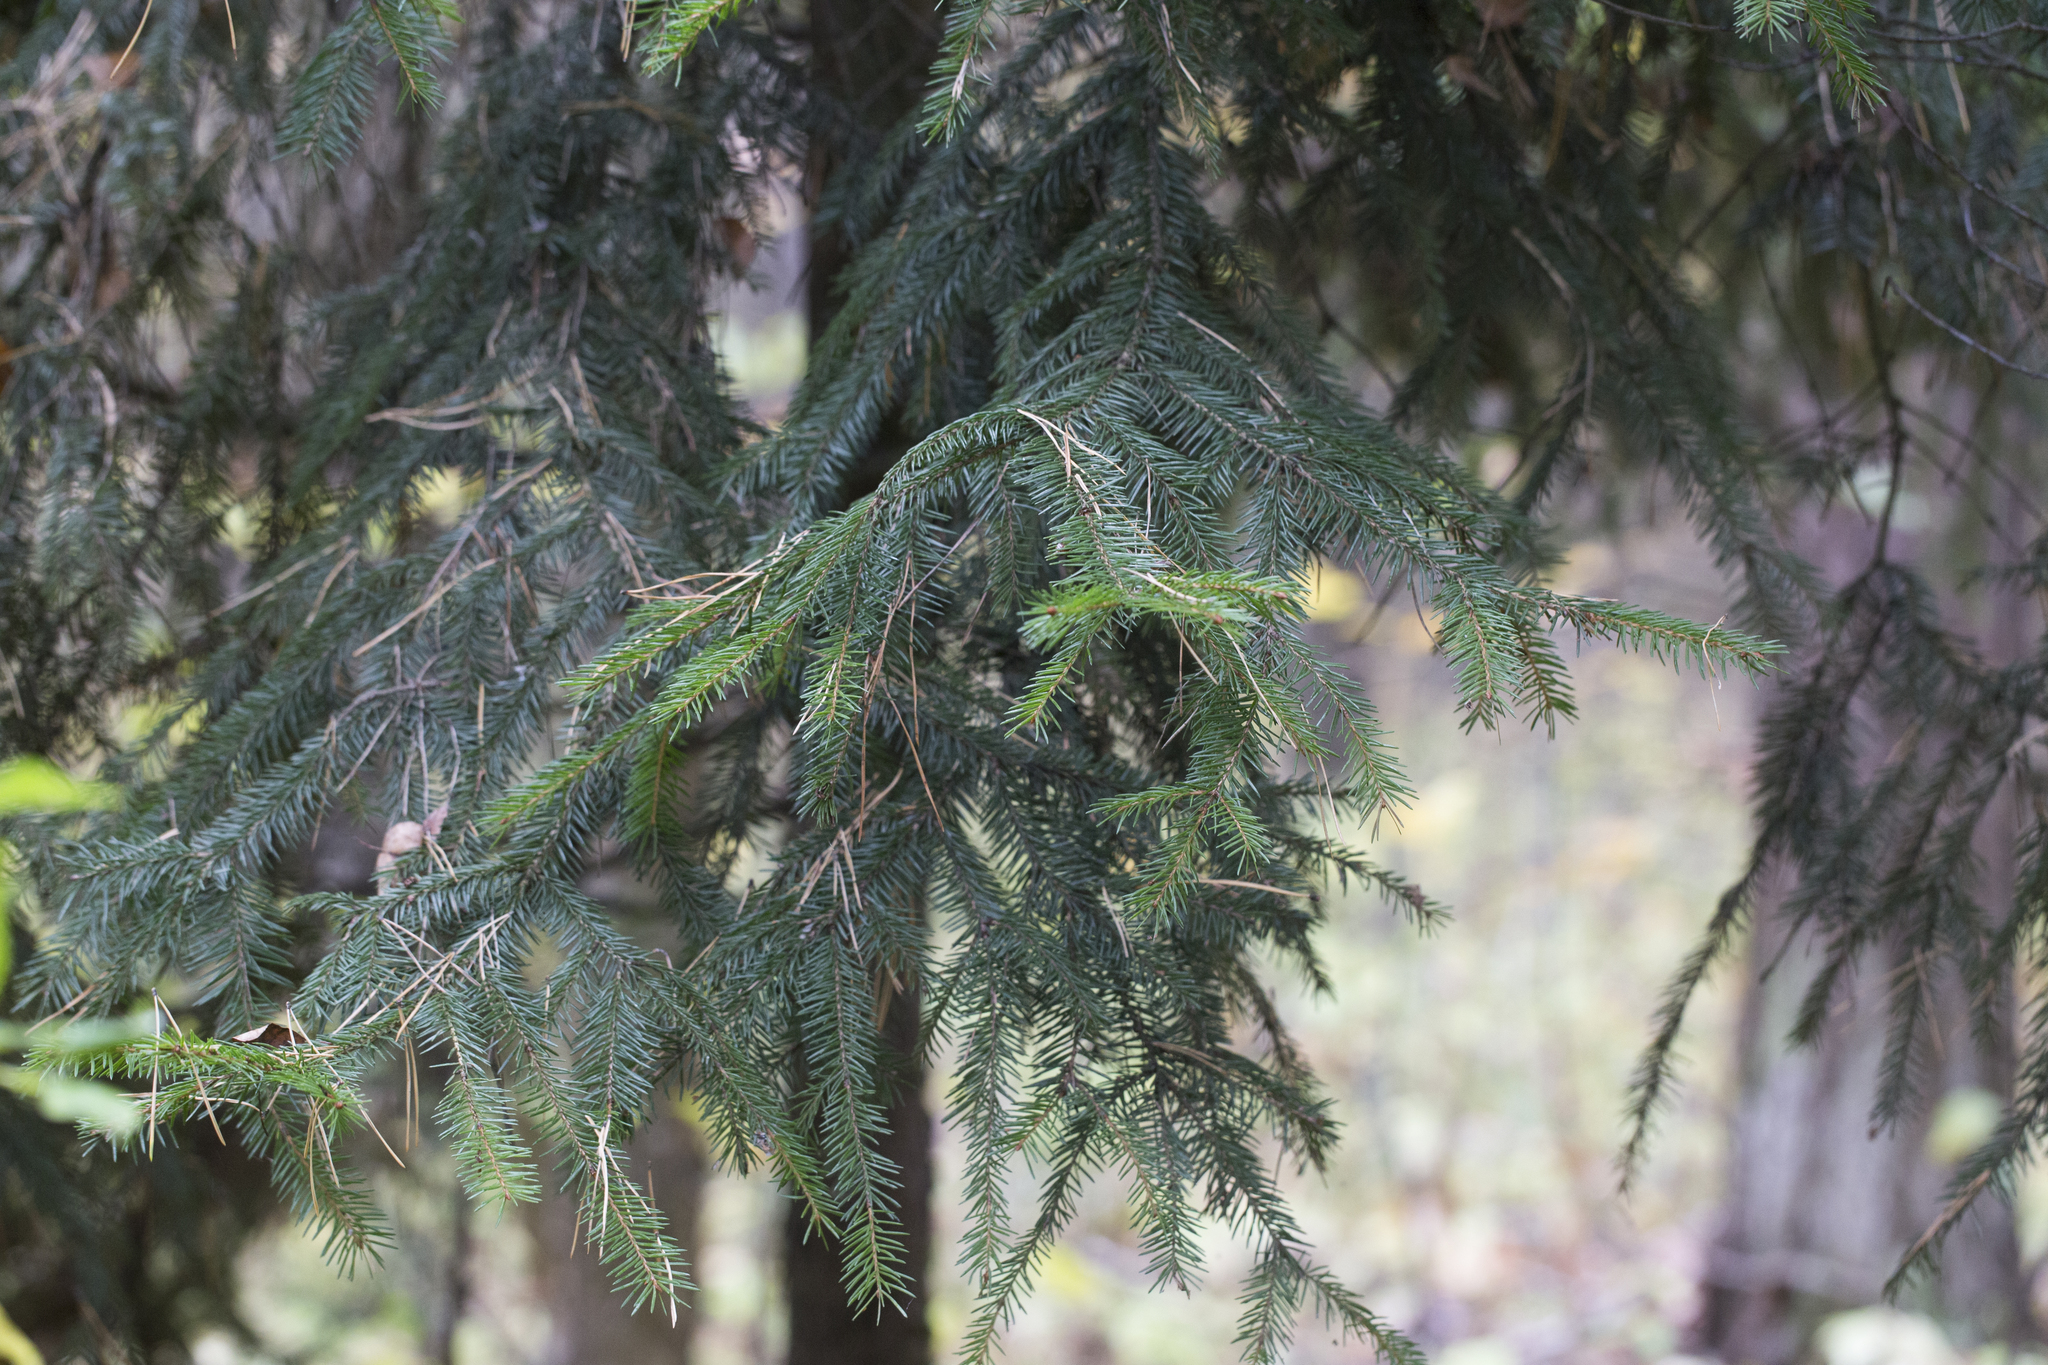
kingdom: Plantae
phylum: Tracheophyta
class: Pinopsida
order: Pinales
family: Pinaceae
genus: Picea
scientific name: Picea abies
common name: Norway spruce
